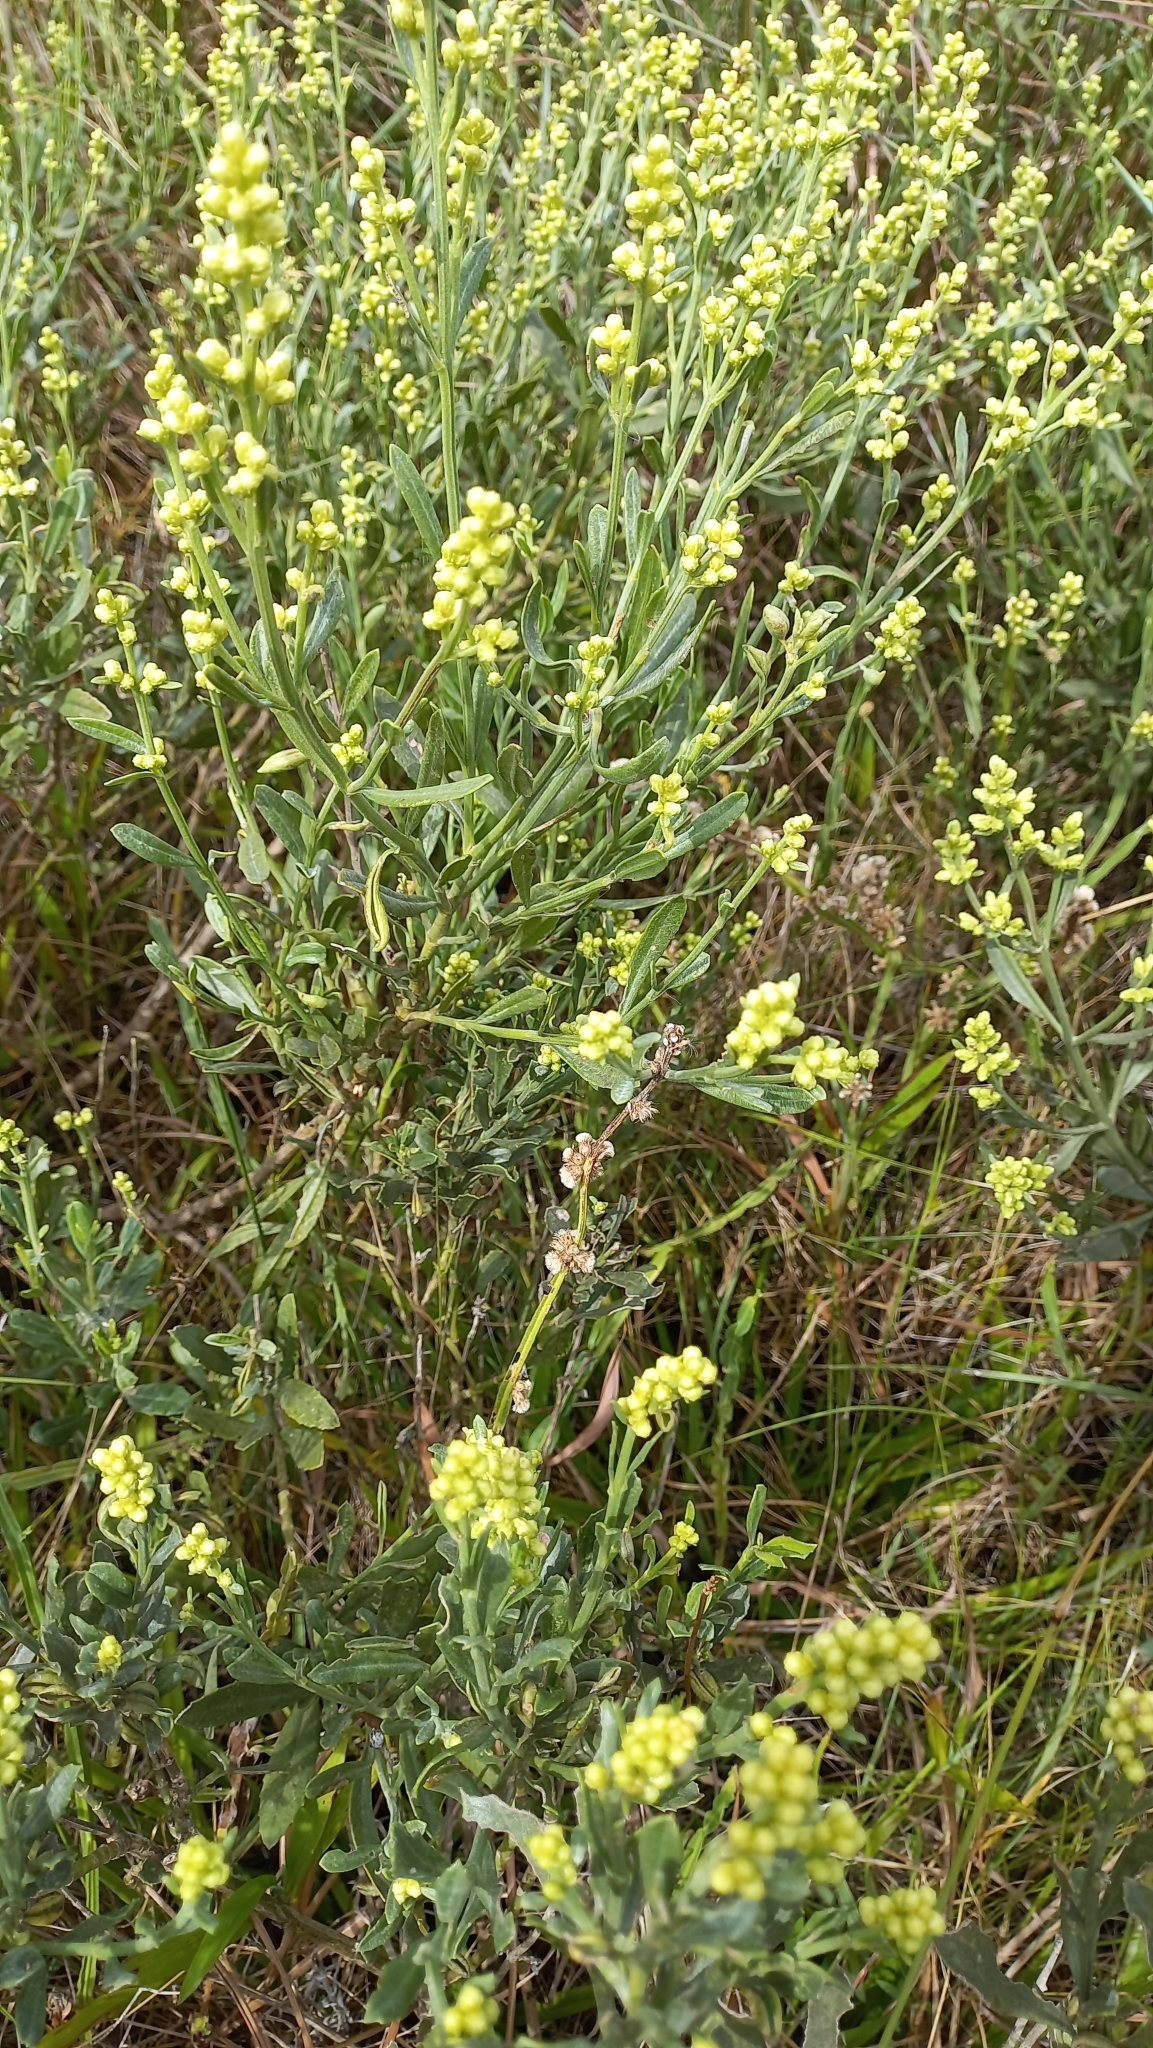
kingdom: Plantae
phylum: Tracheophyta
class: Magnoliopsida
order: Asterales
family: Asteraceae
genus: Baccharis
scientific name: Baccharis spicata
